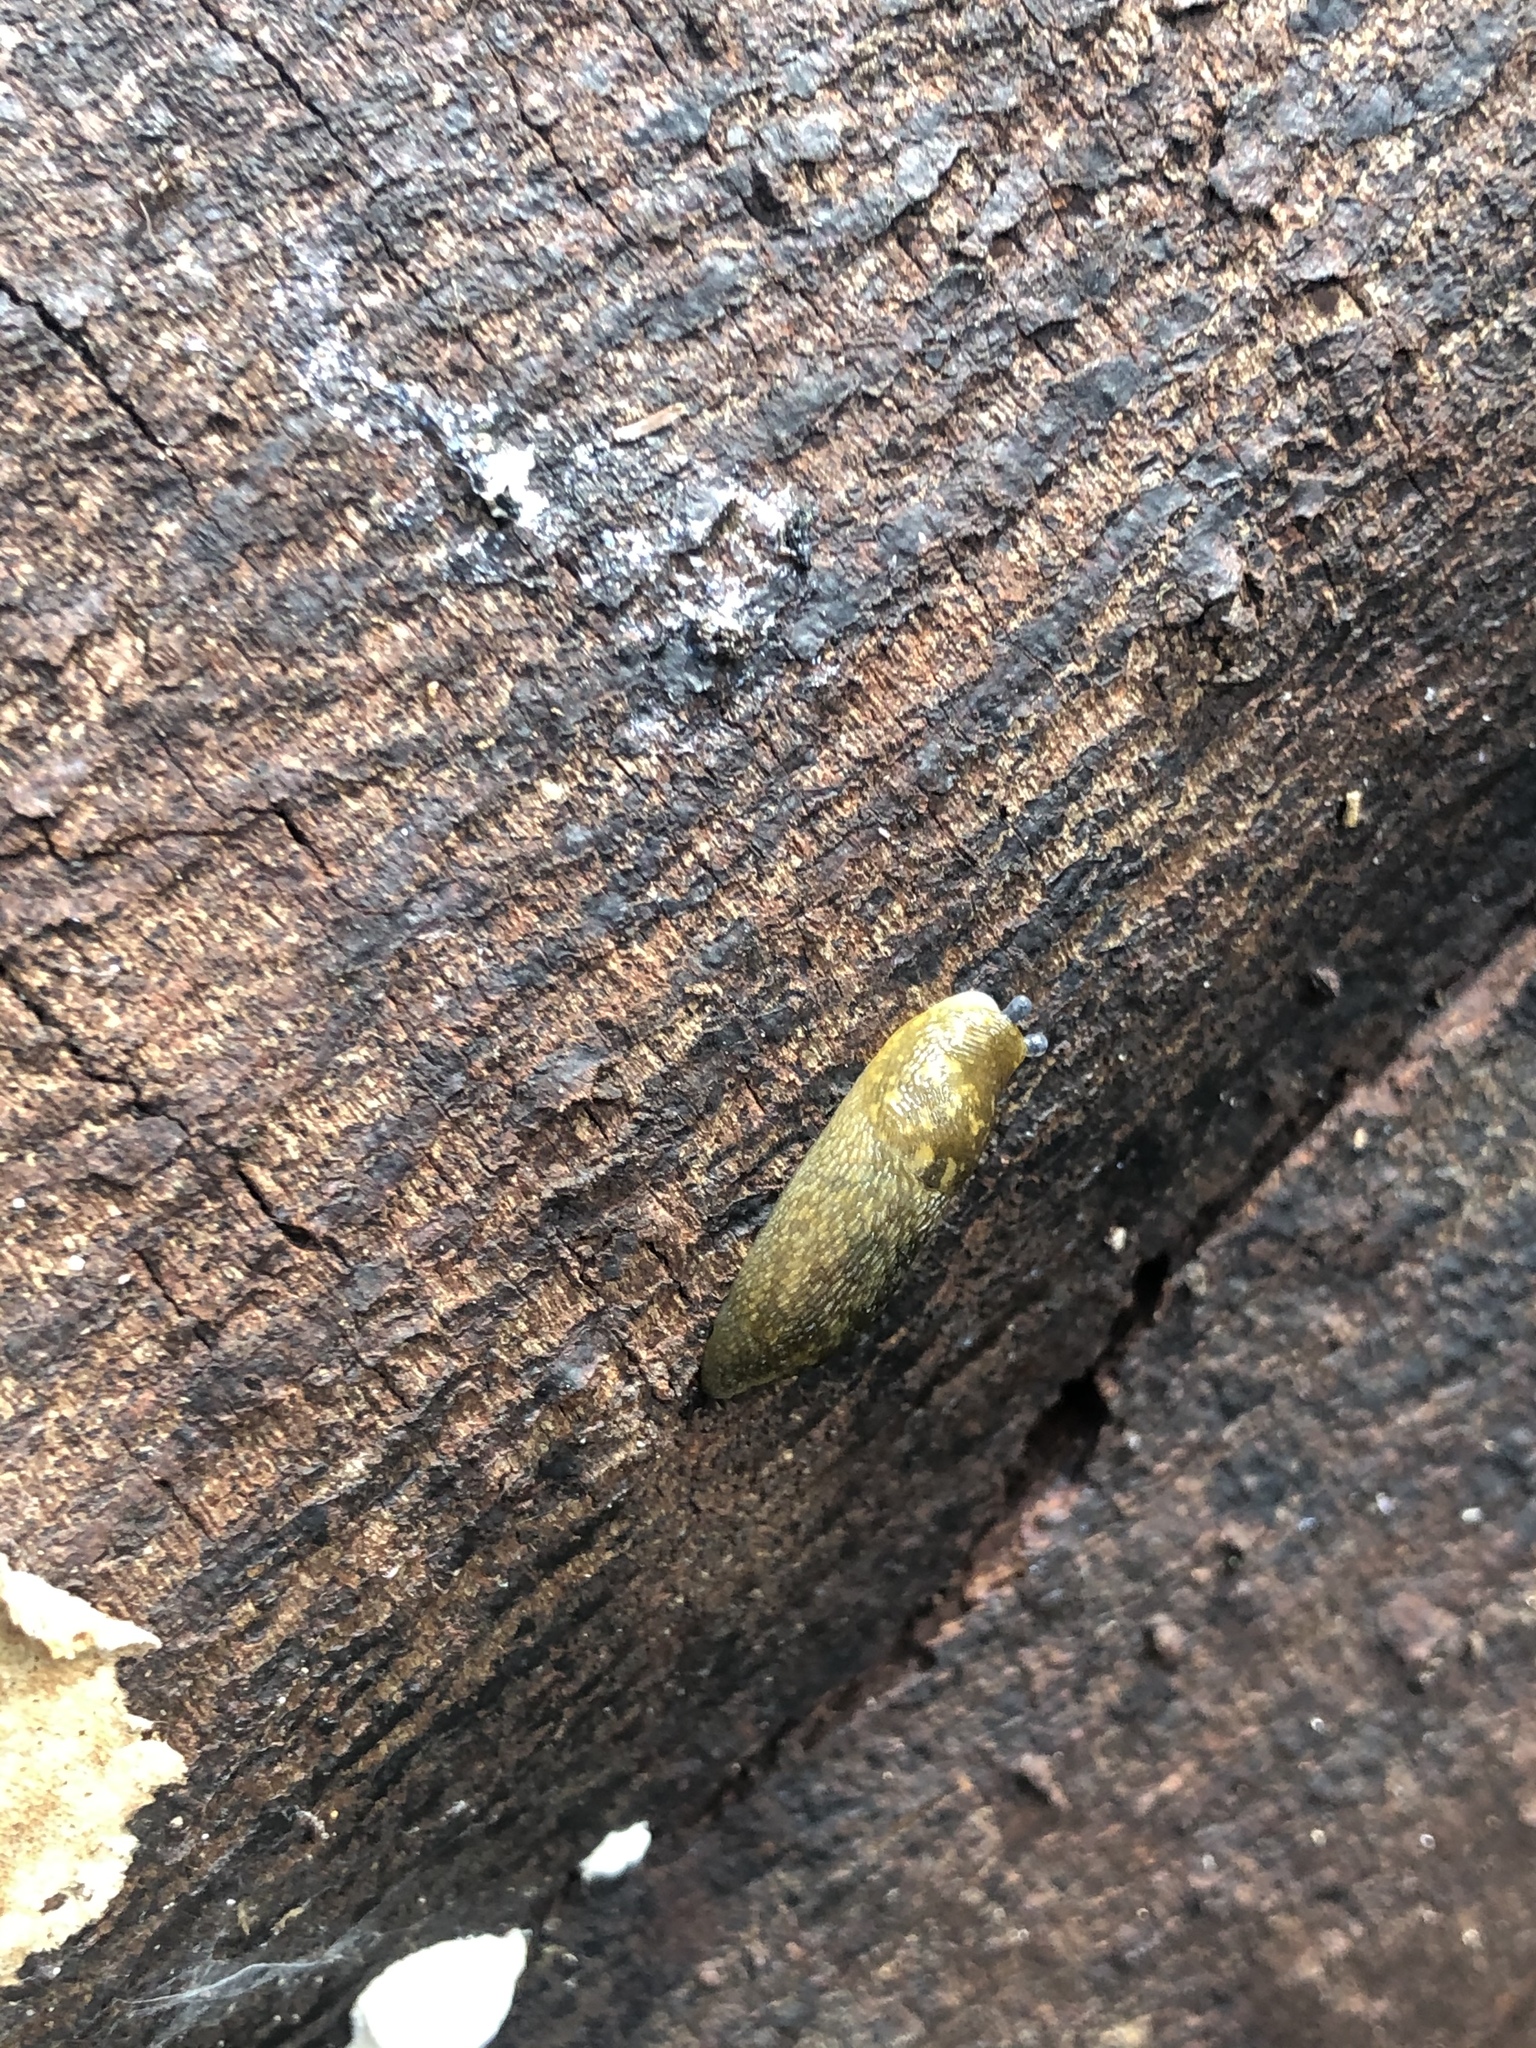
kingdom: Animalia
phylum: Mollusca
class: Gastropoda
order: Stylommatophora
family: Limacidae
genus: Limacus
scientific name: Limacus flavus
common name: Yellow gardenslug
